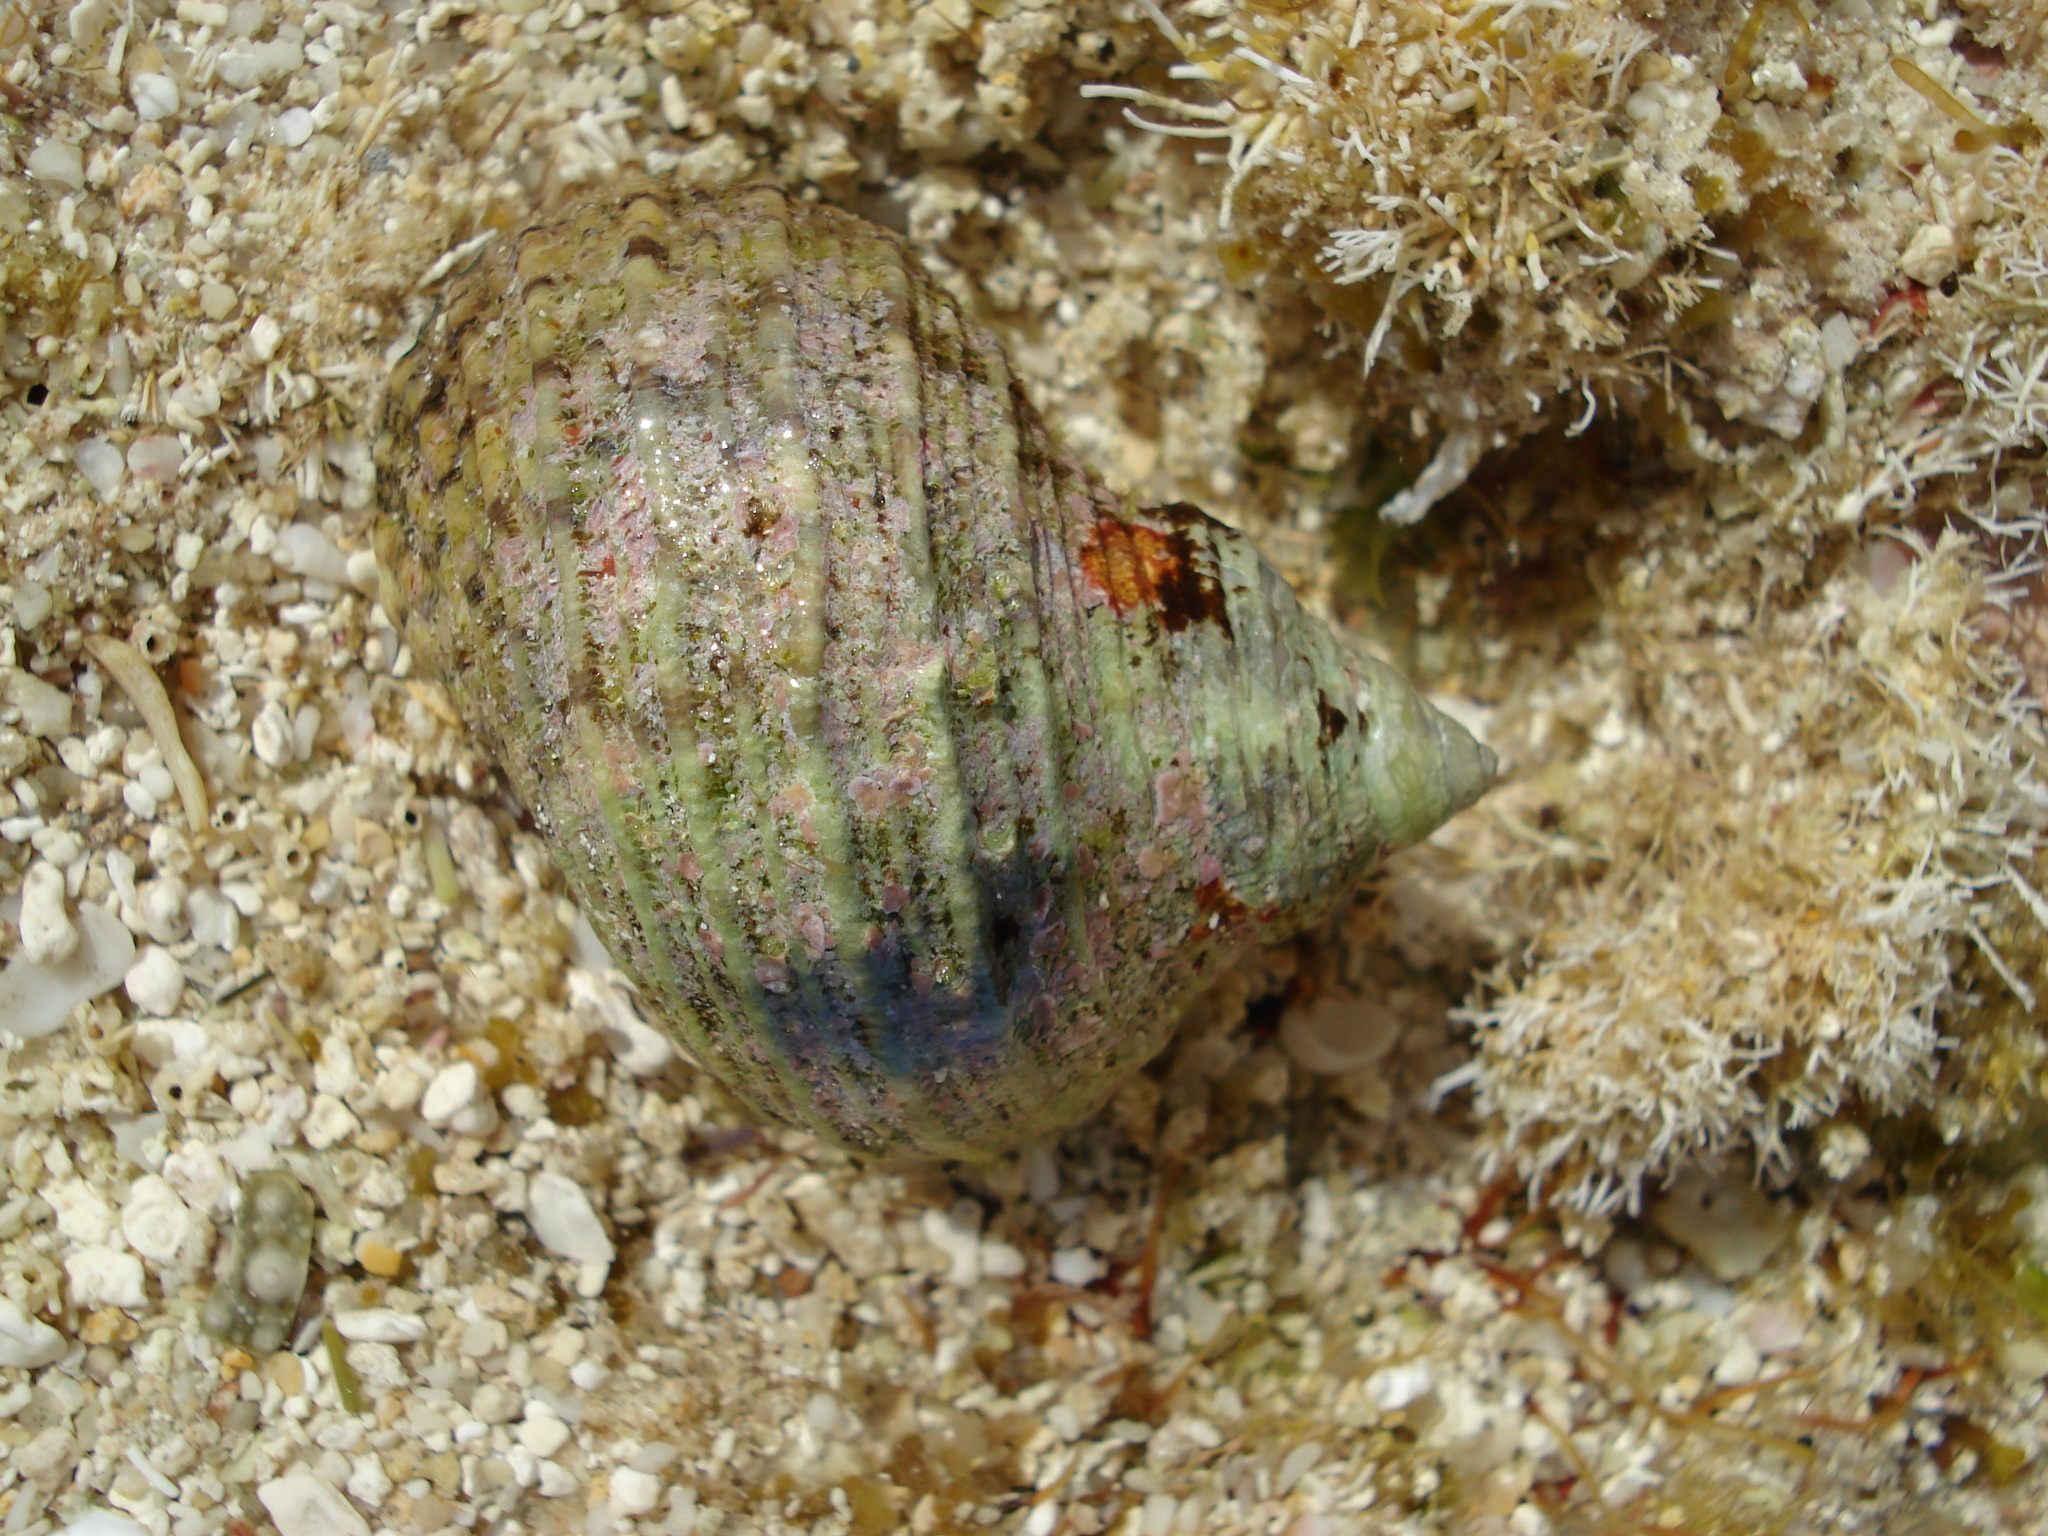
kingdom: Animalia
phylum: Mollusca
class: Gastropoda
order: Trochida
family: Turbinidae
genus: Turbo
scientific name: Turbo kenwilliamsi
